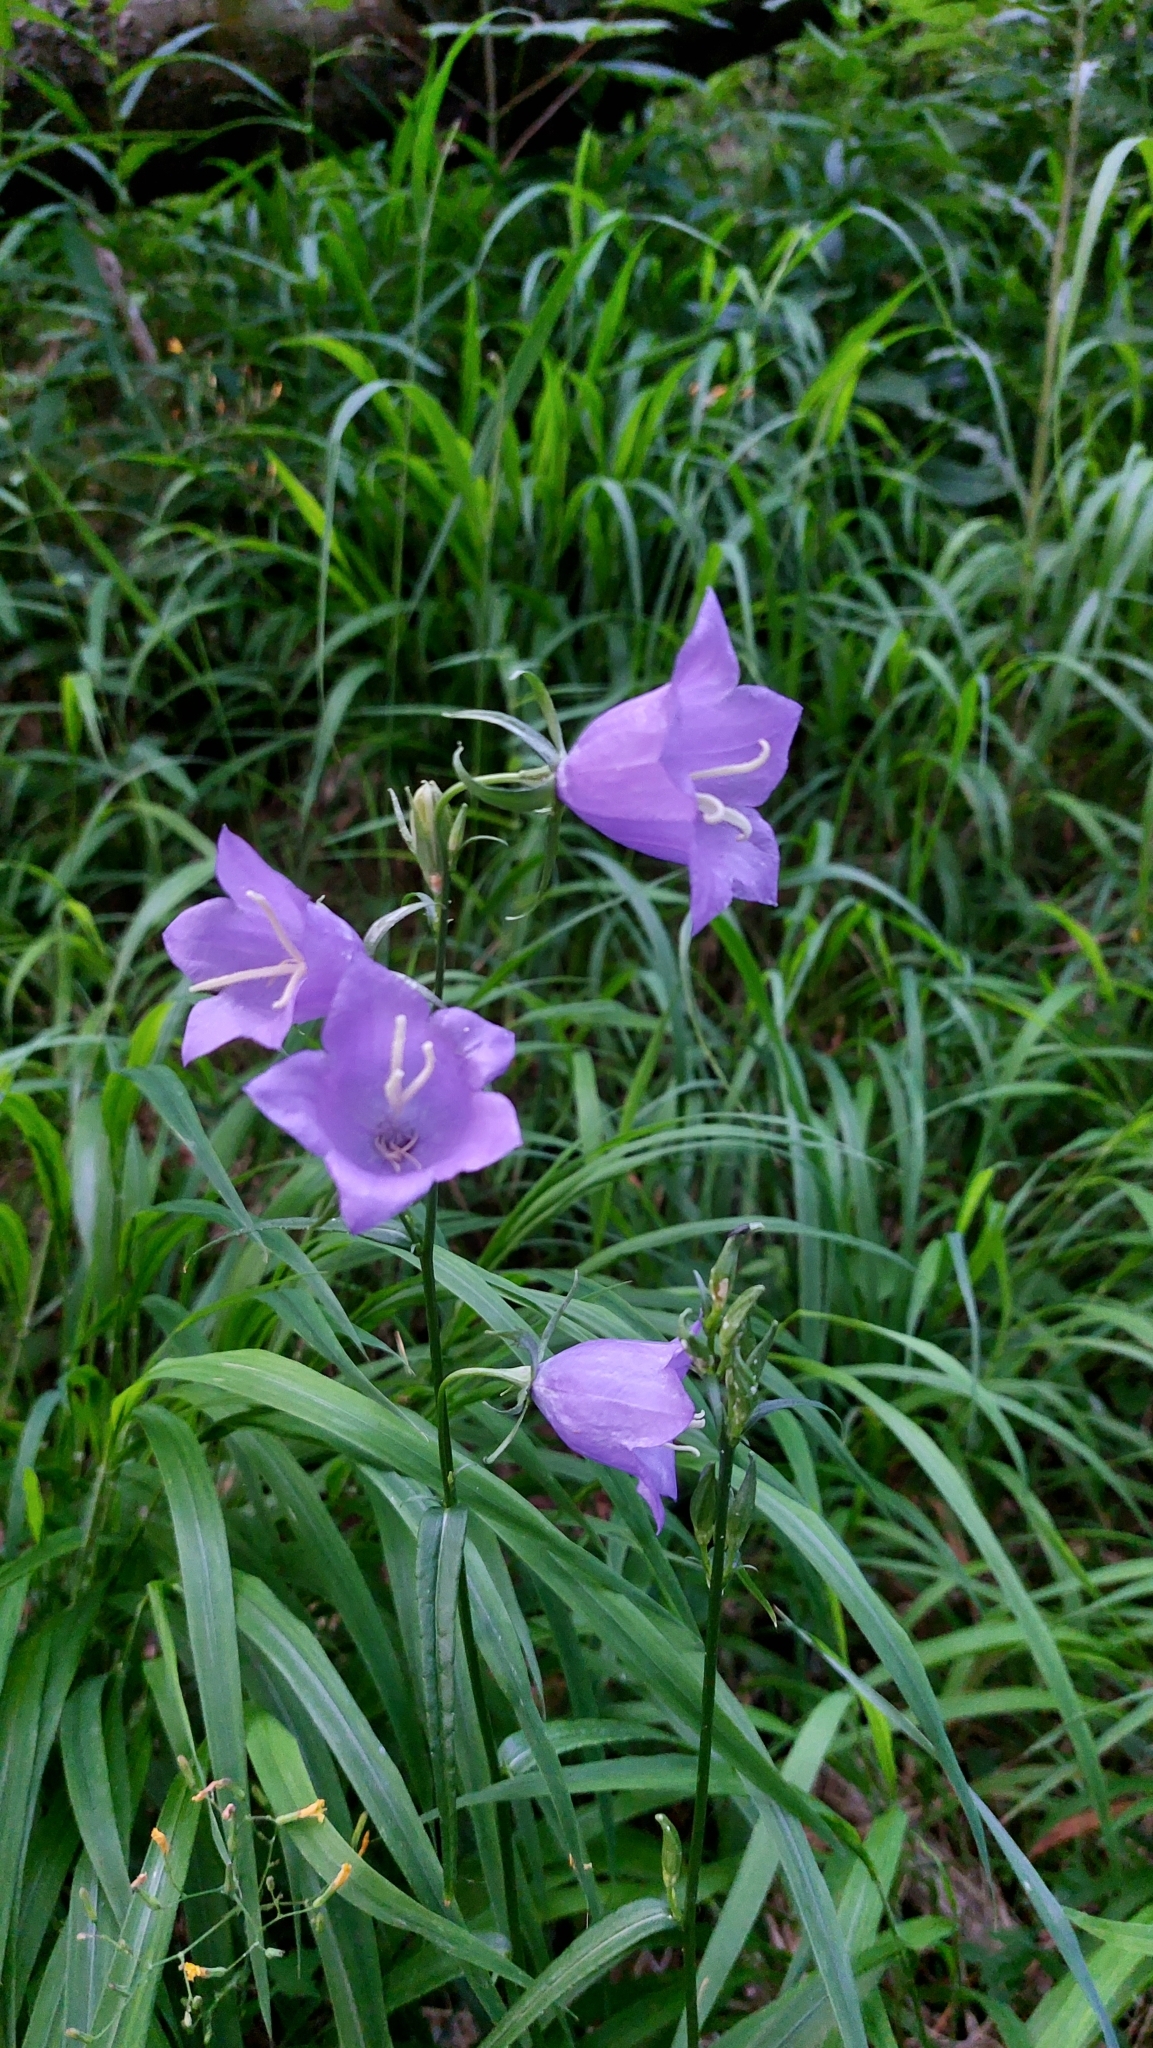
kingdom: Plantae
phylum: Tracheophyta
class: Magnoliopsida
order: Asterales
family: Campanulaceae
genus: Campanula
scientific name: Campanula persicifolia
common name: Peach-leaved bellflower
